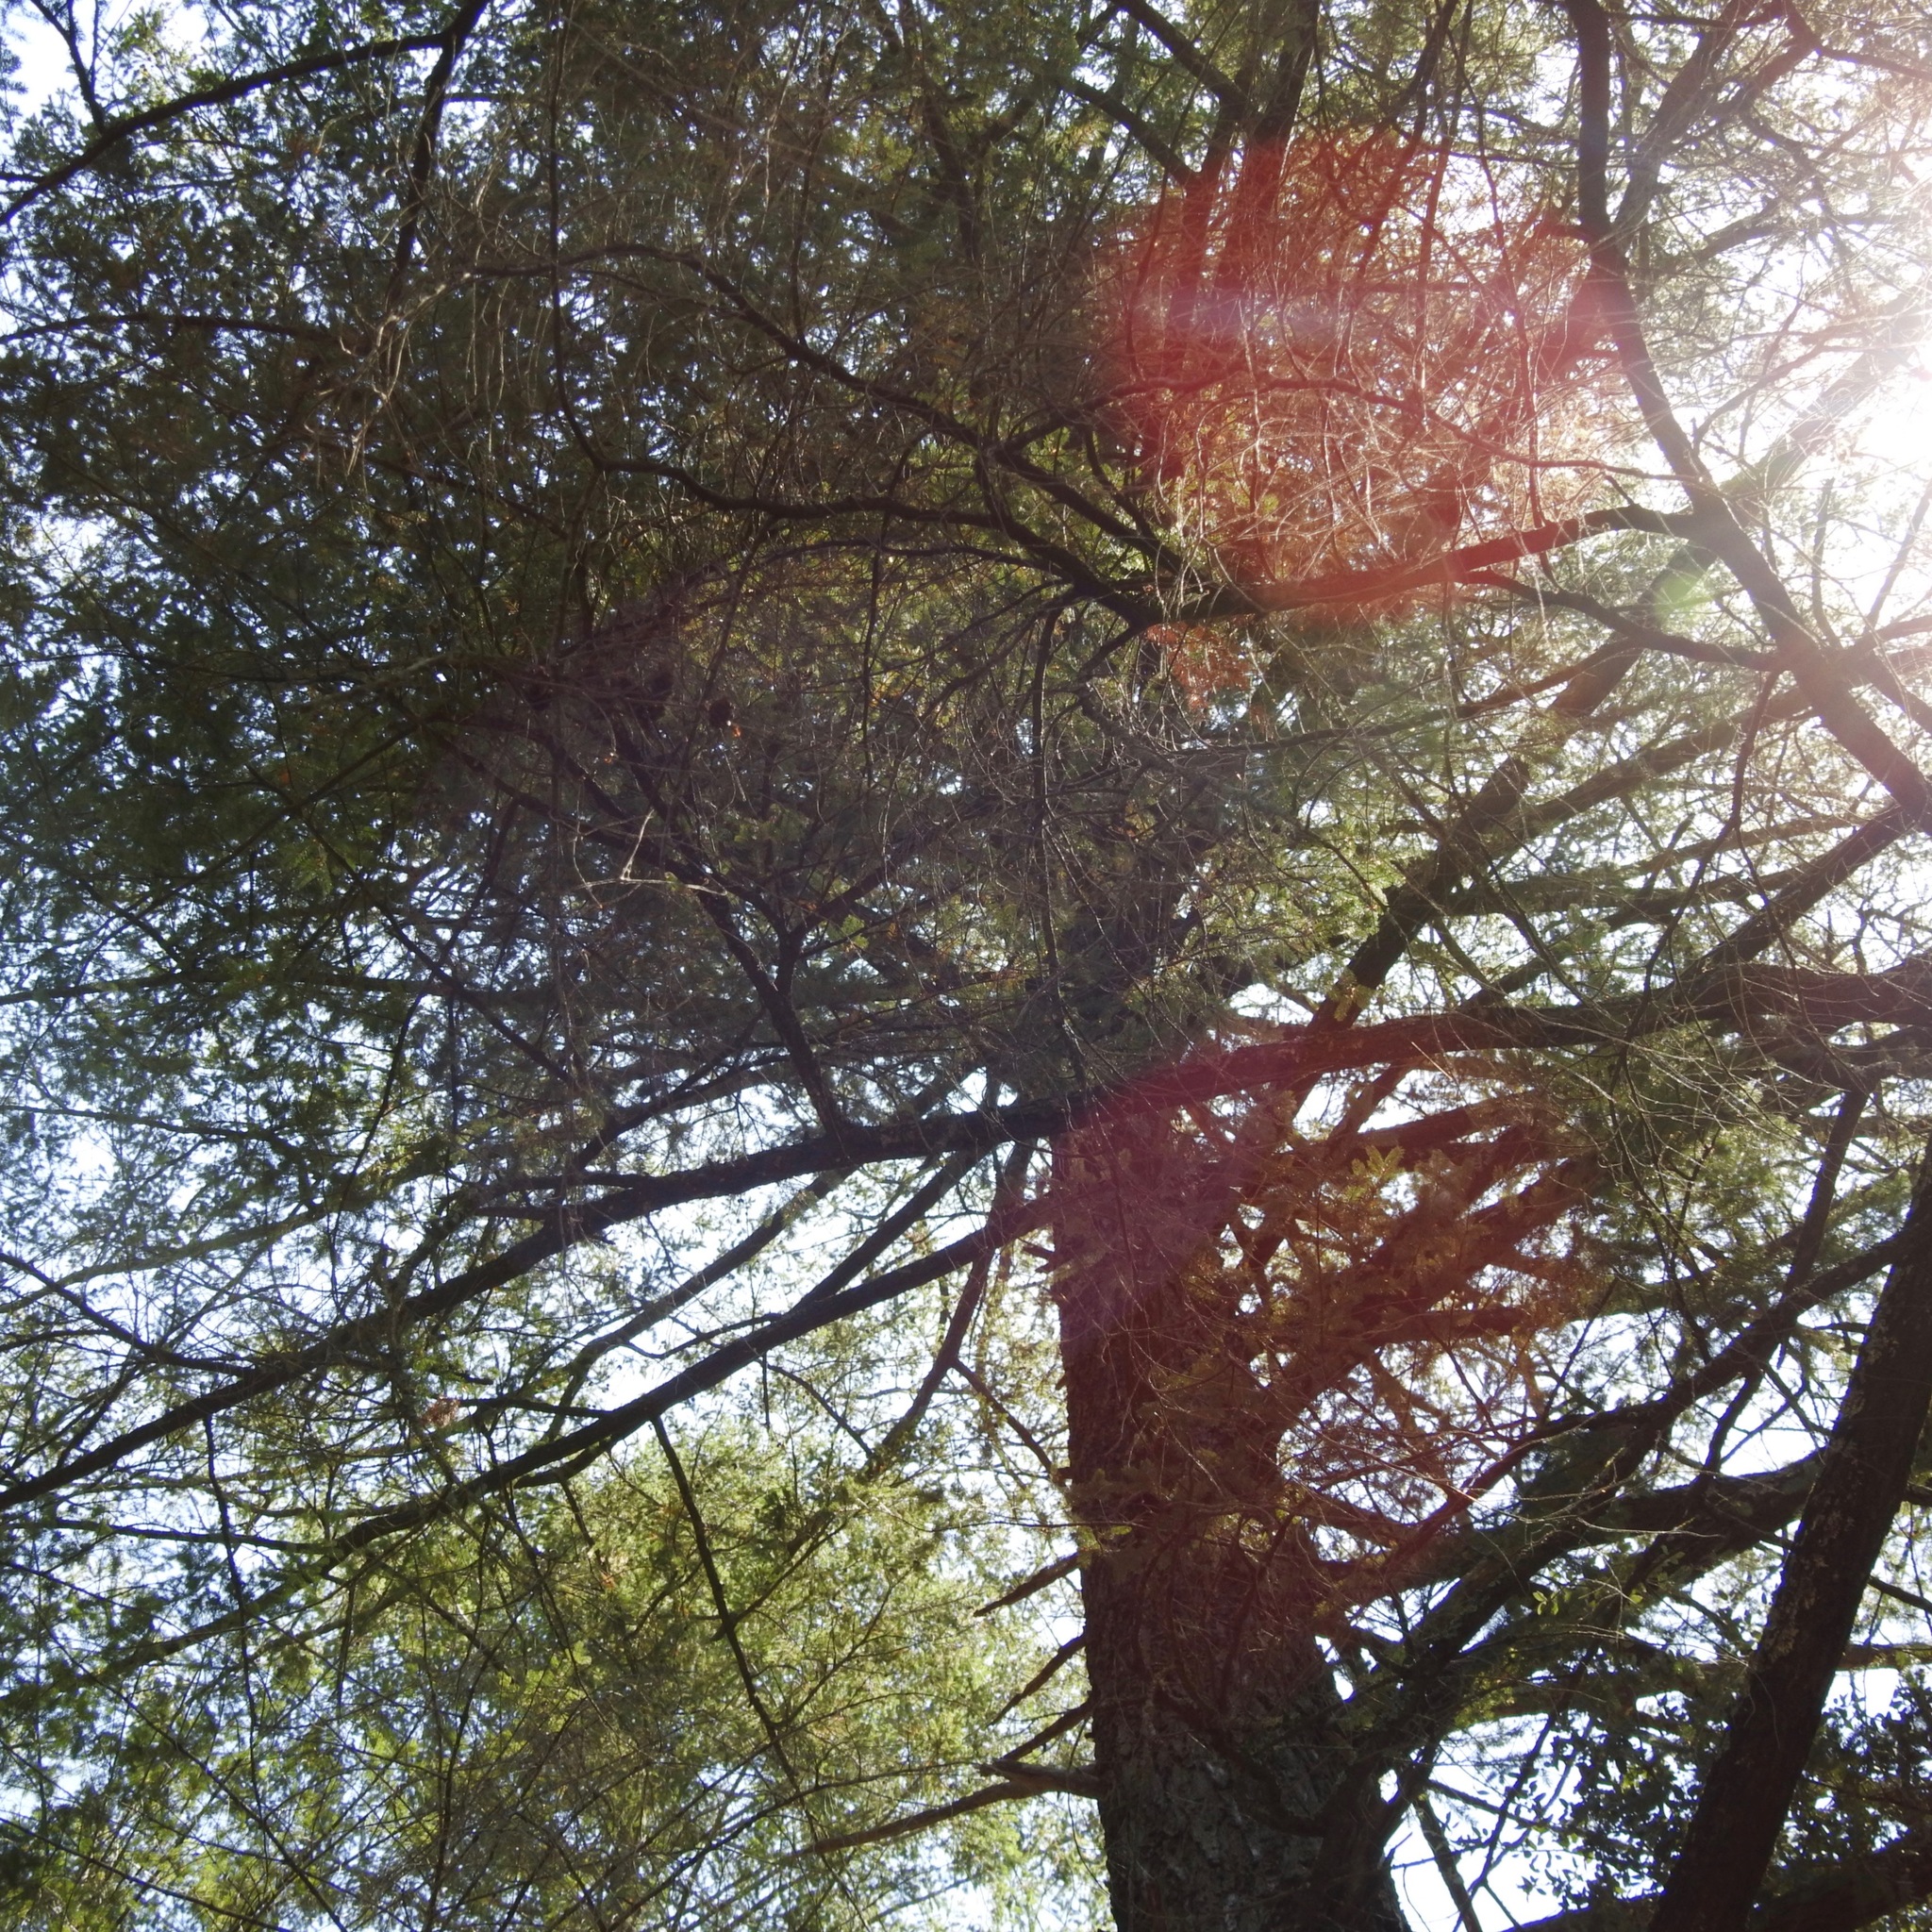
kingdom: Plantae
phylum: Tracheophyta
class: Pinopsida
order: Pinales
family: Pinaceae
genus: Pseudotsuga
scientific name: Pseudotsuga menziesii
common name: Douglas fir
